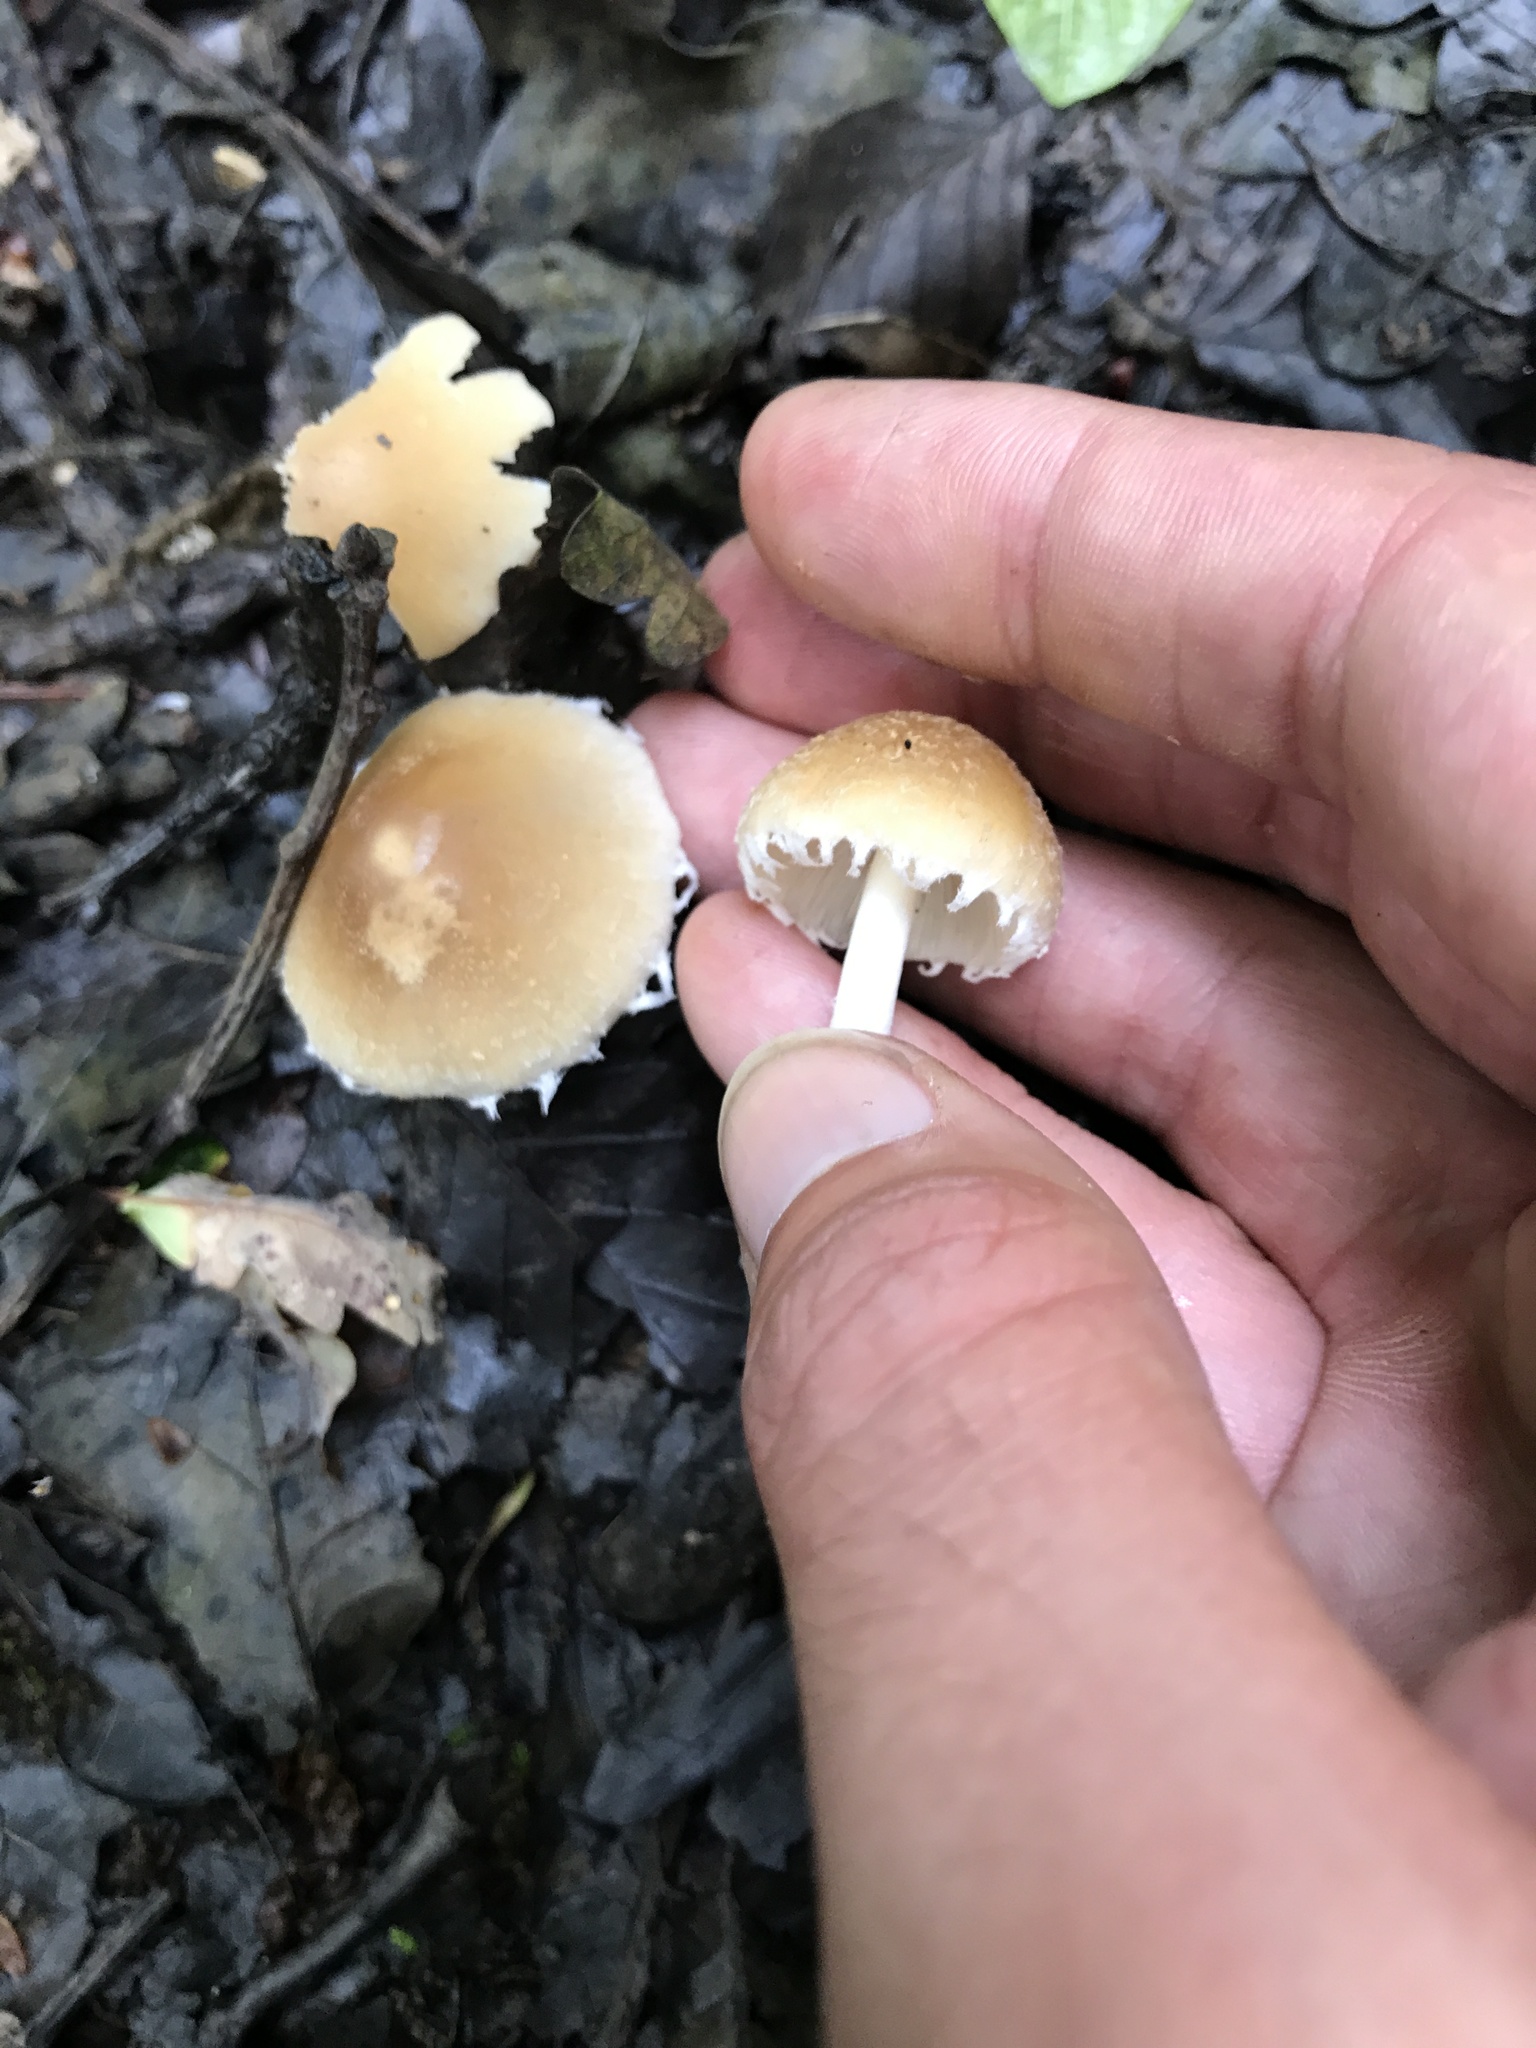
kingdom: Fungi
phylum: Basidiomycota
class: Agaricomycetes
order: Agaricales
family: Psathyrellaceae
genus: Candolleomyces
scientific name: Candolleomyces candolleanus
